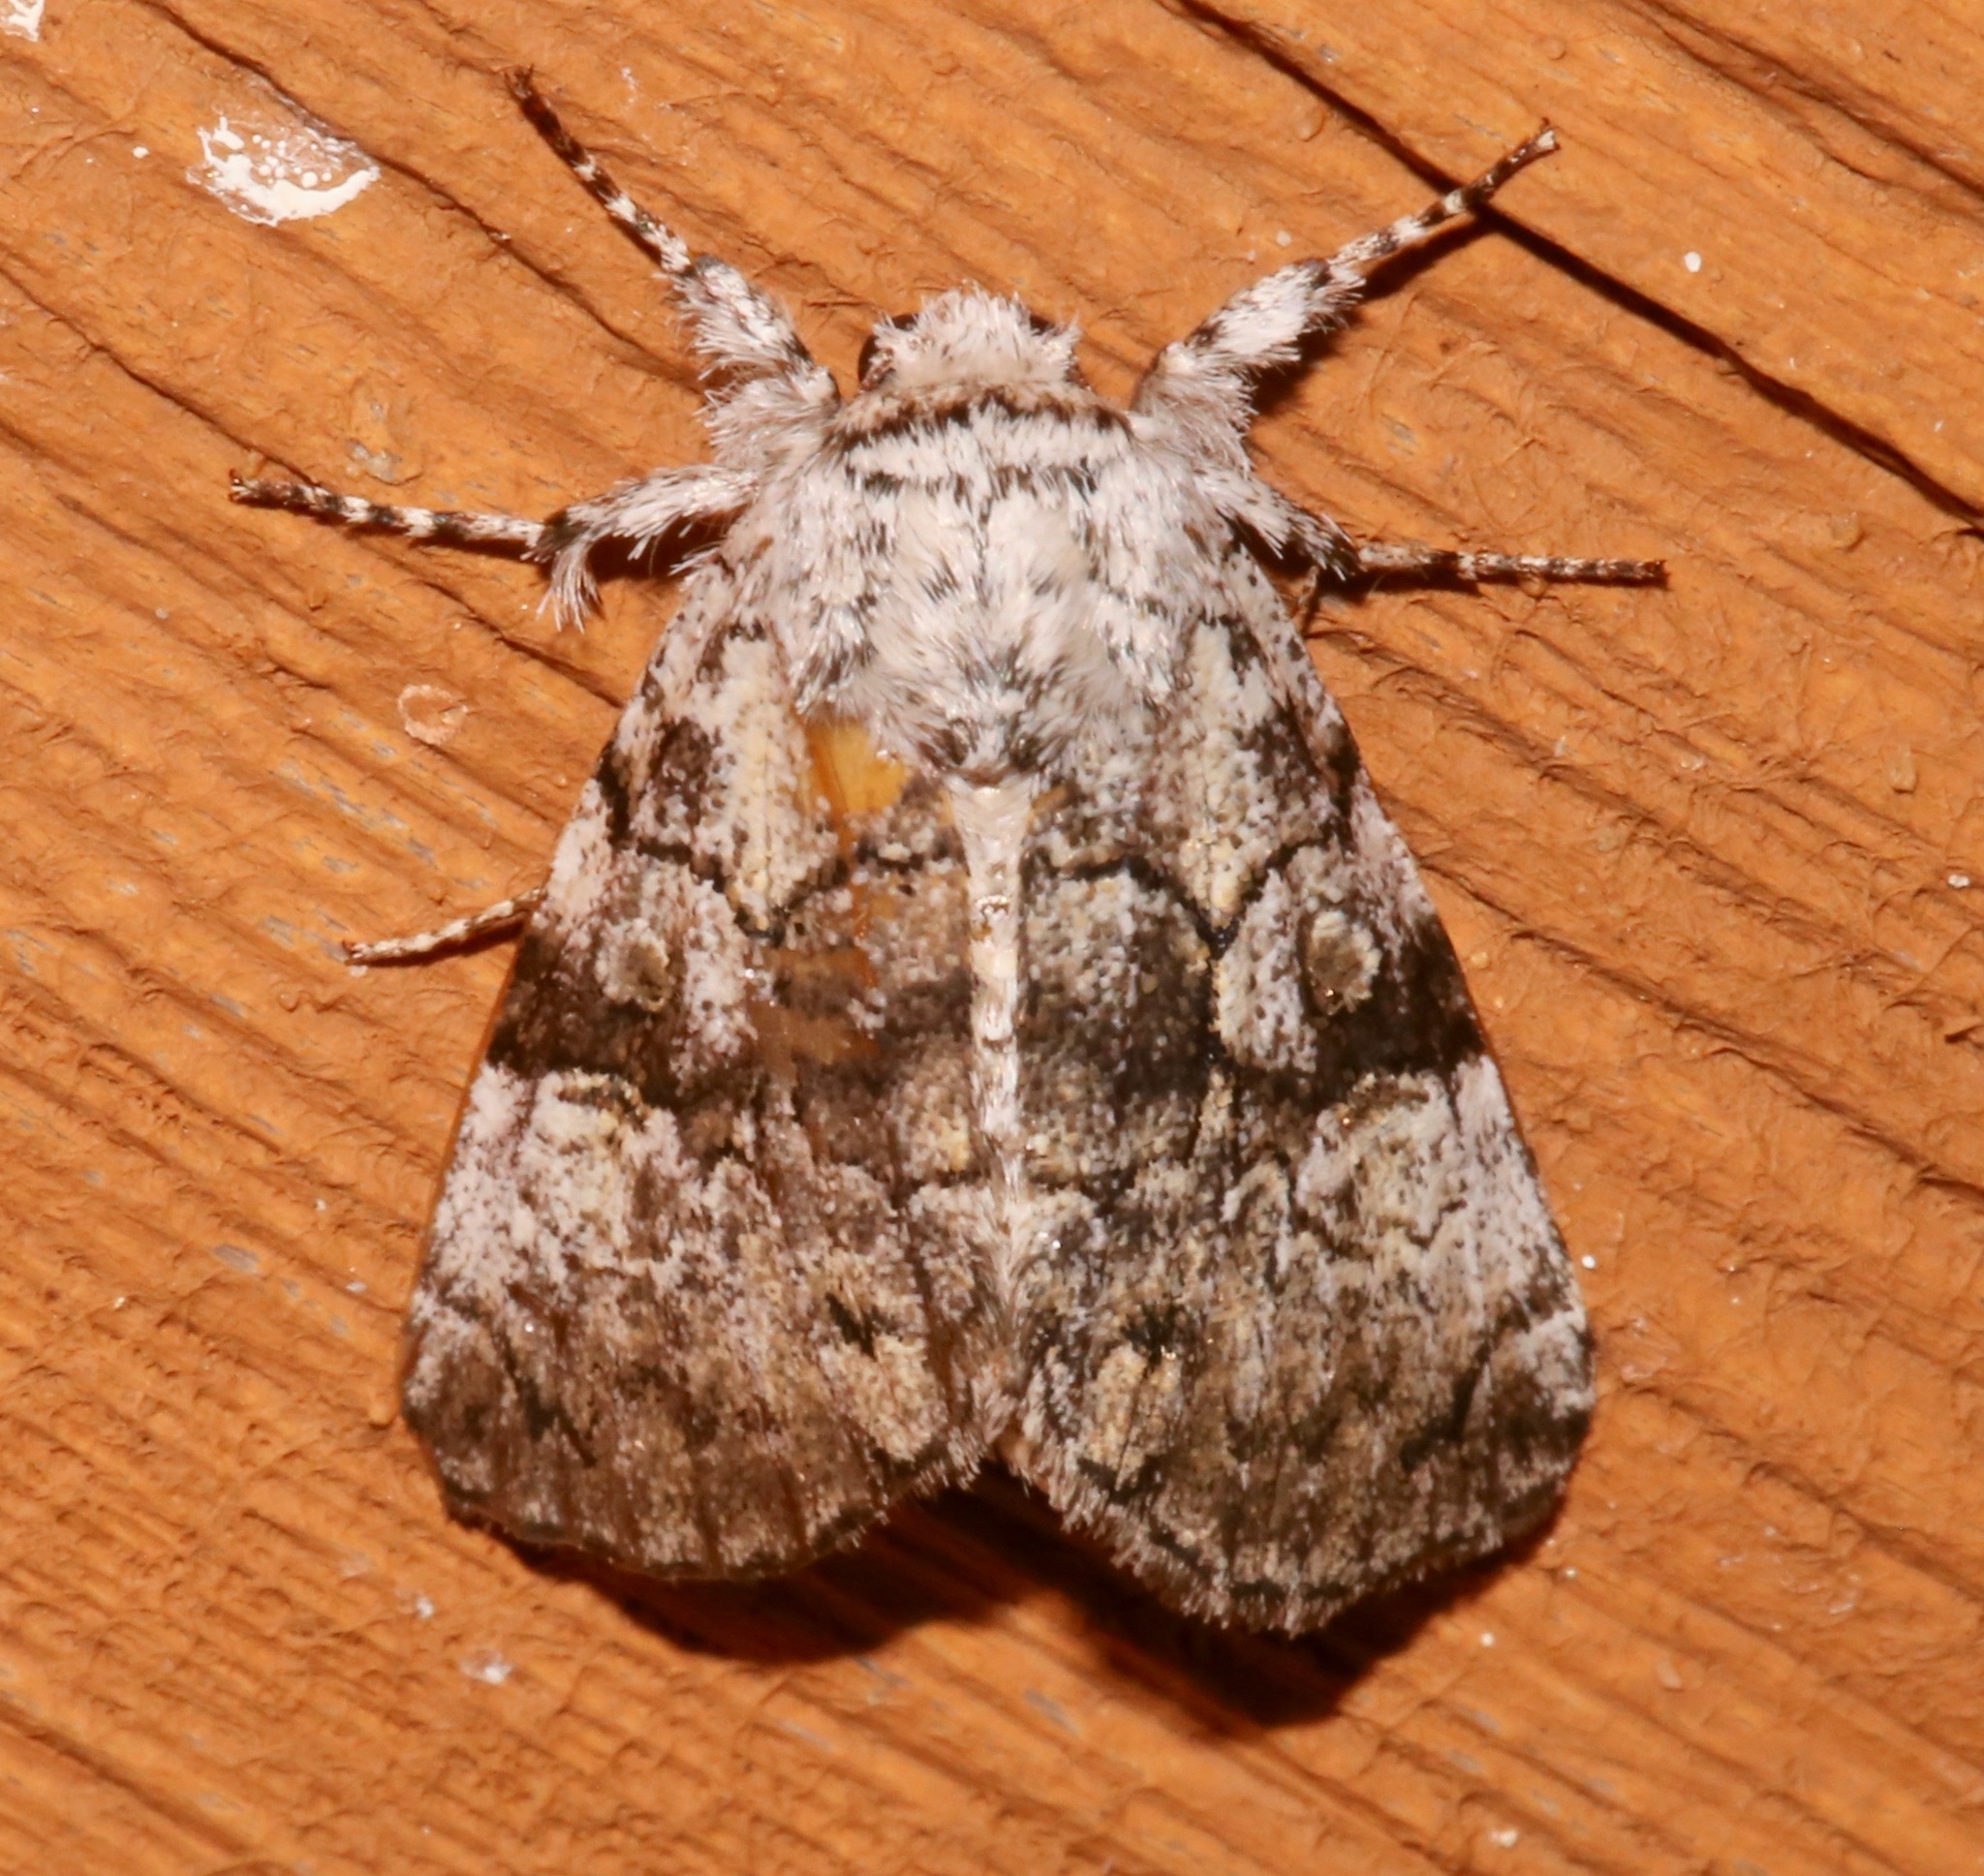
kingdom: Animalia
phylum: Arthropoda
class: Insecta
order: Lepidoptera
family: Noctuidae
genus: Charadra
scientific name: Charadra deridens
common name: Marbled tuffet
